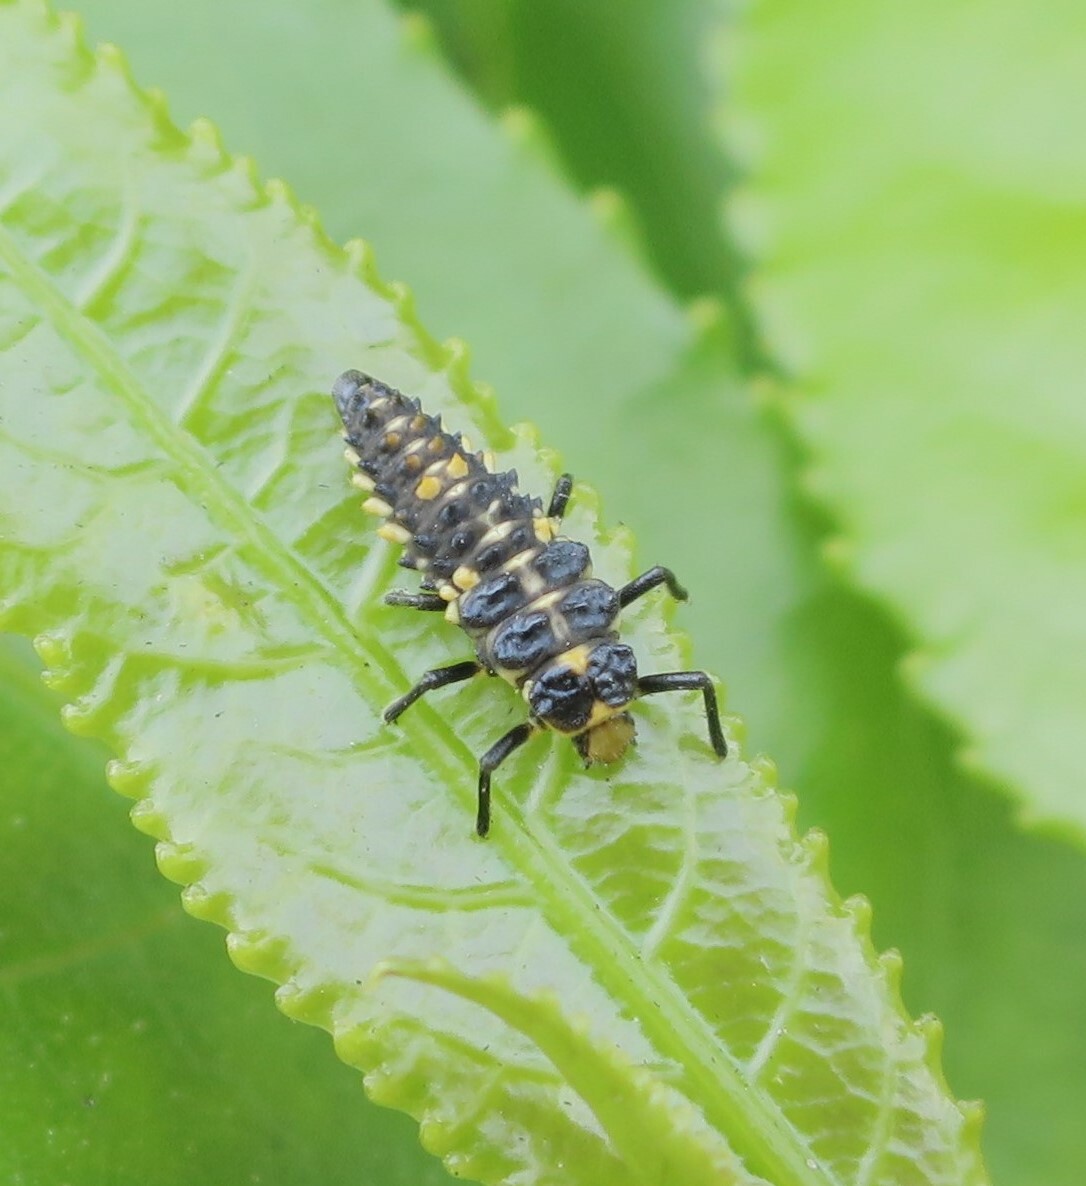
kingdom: Animalia
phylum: Arthropoda
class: Insecta
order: Coleoptera
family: Coccinellidae
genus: Cleobora
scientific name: Cleobora
